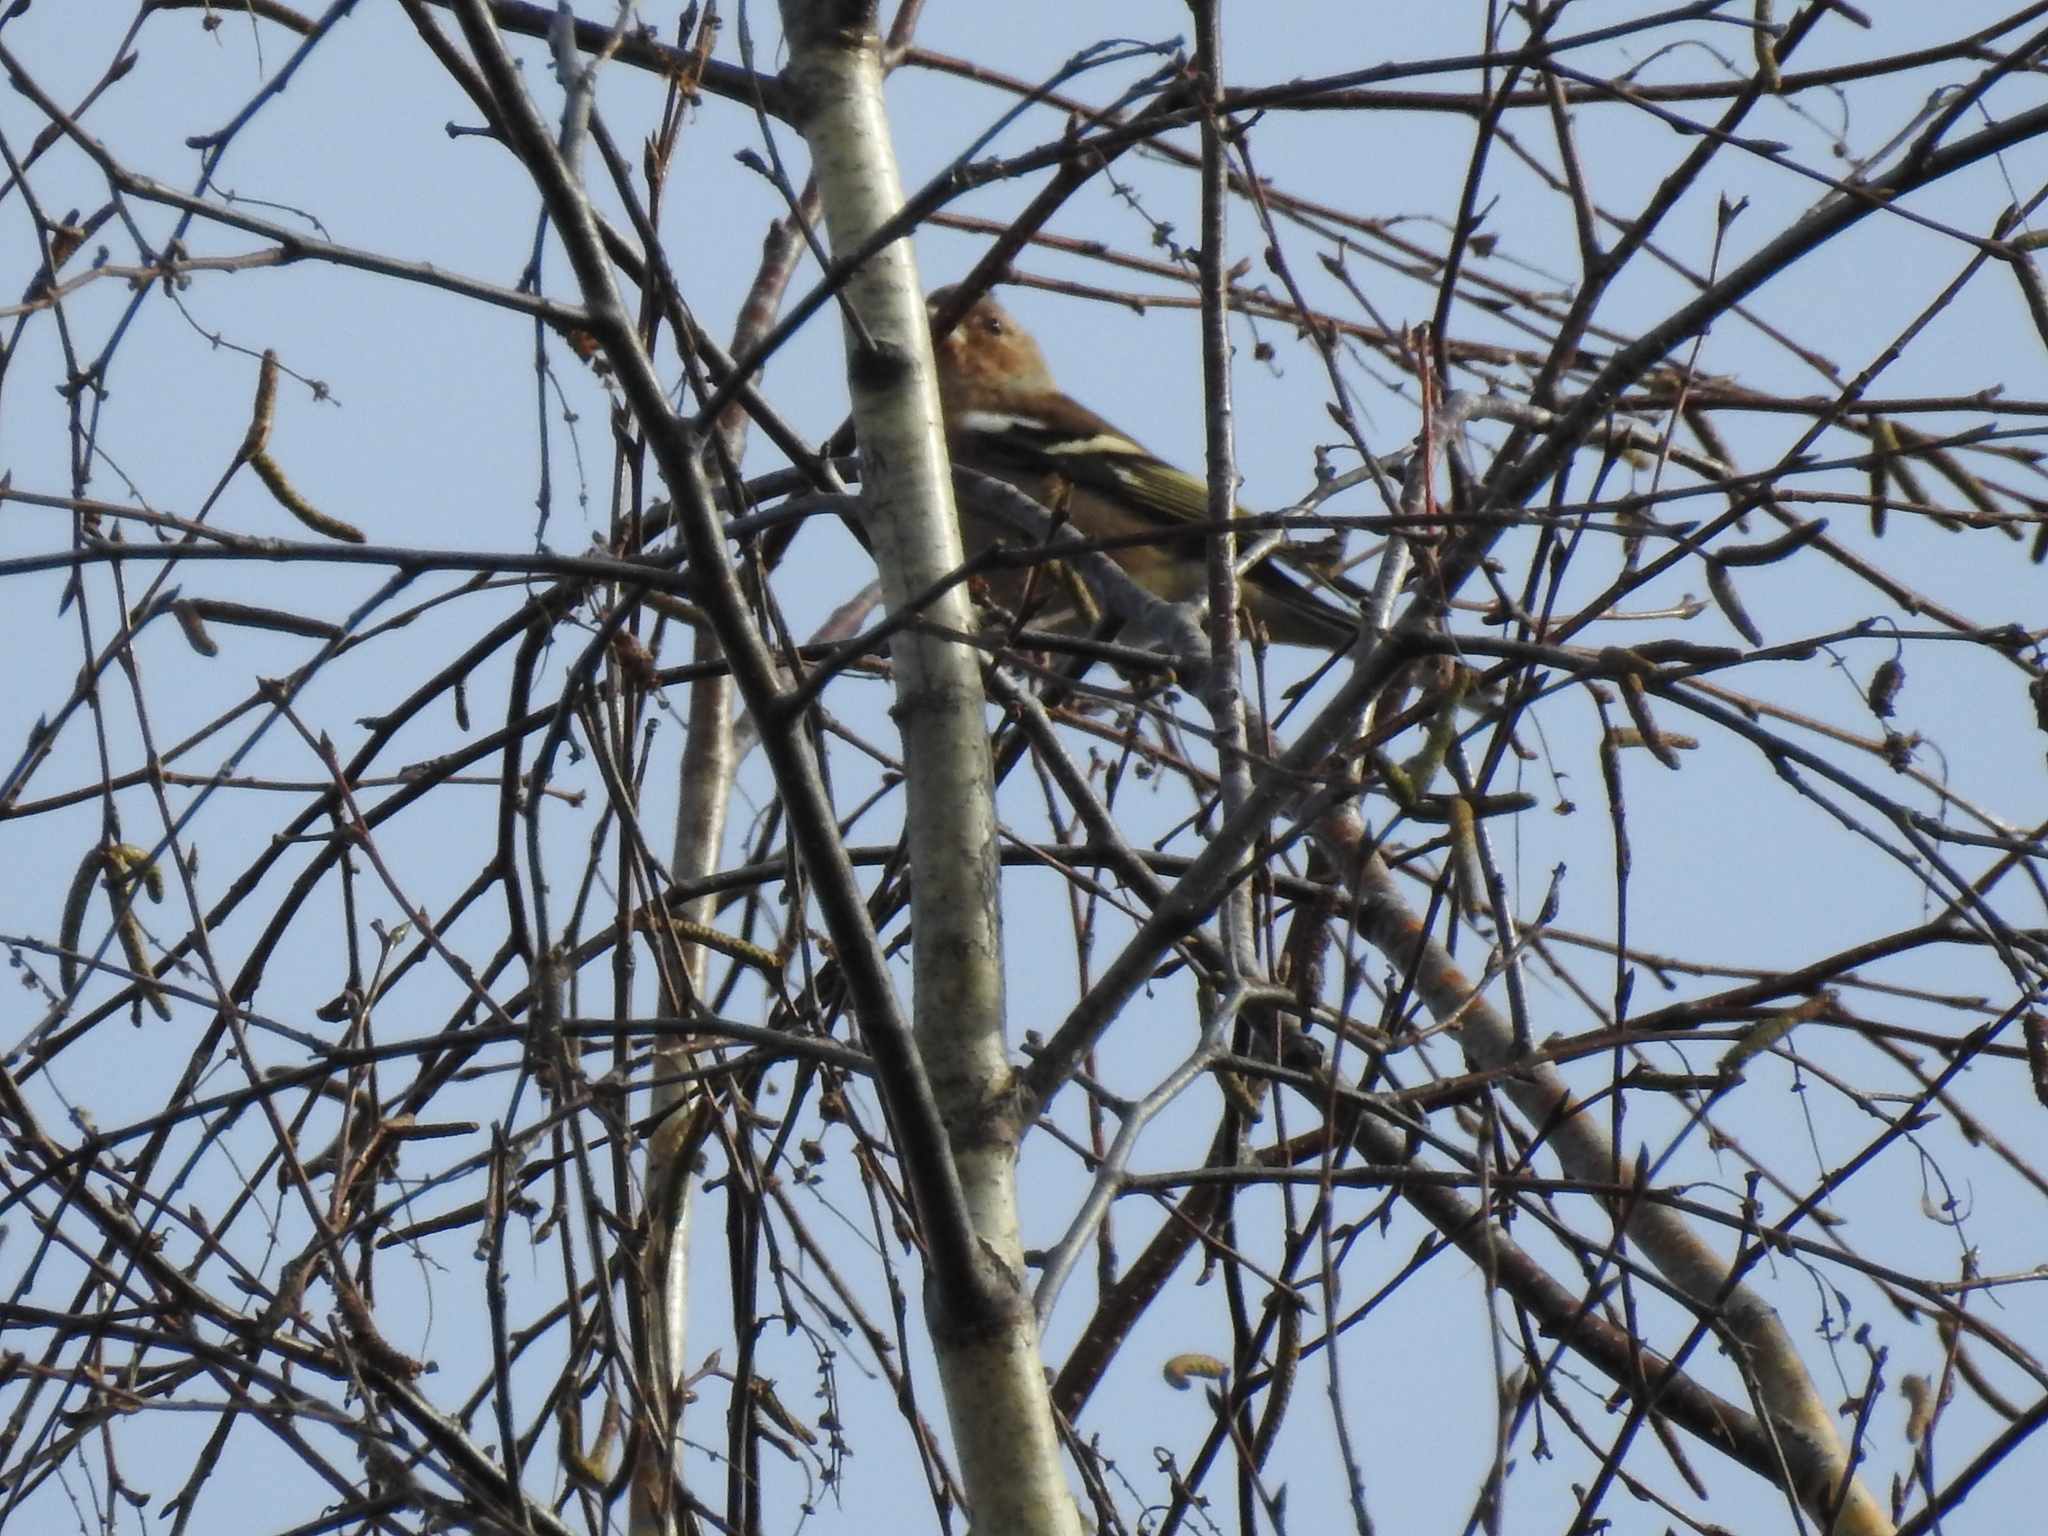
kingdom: Animalia
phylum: Chordata
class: Aves
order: Passeriformes
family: Fringillidae
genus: Fringilla
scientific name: Fringilla coelebs
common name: Common chaffinch
